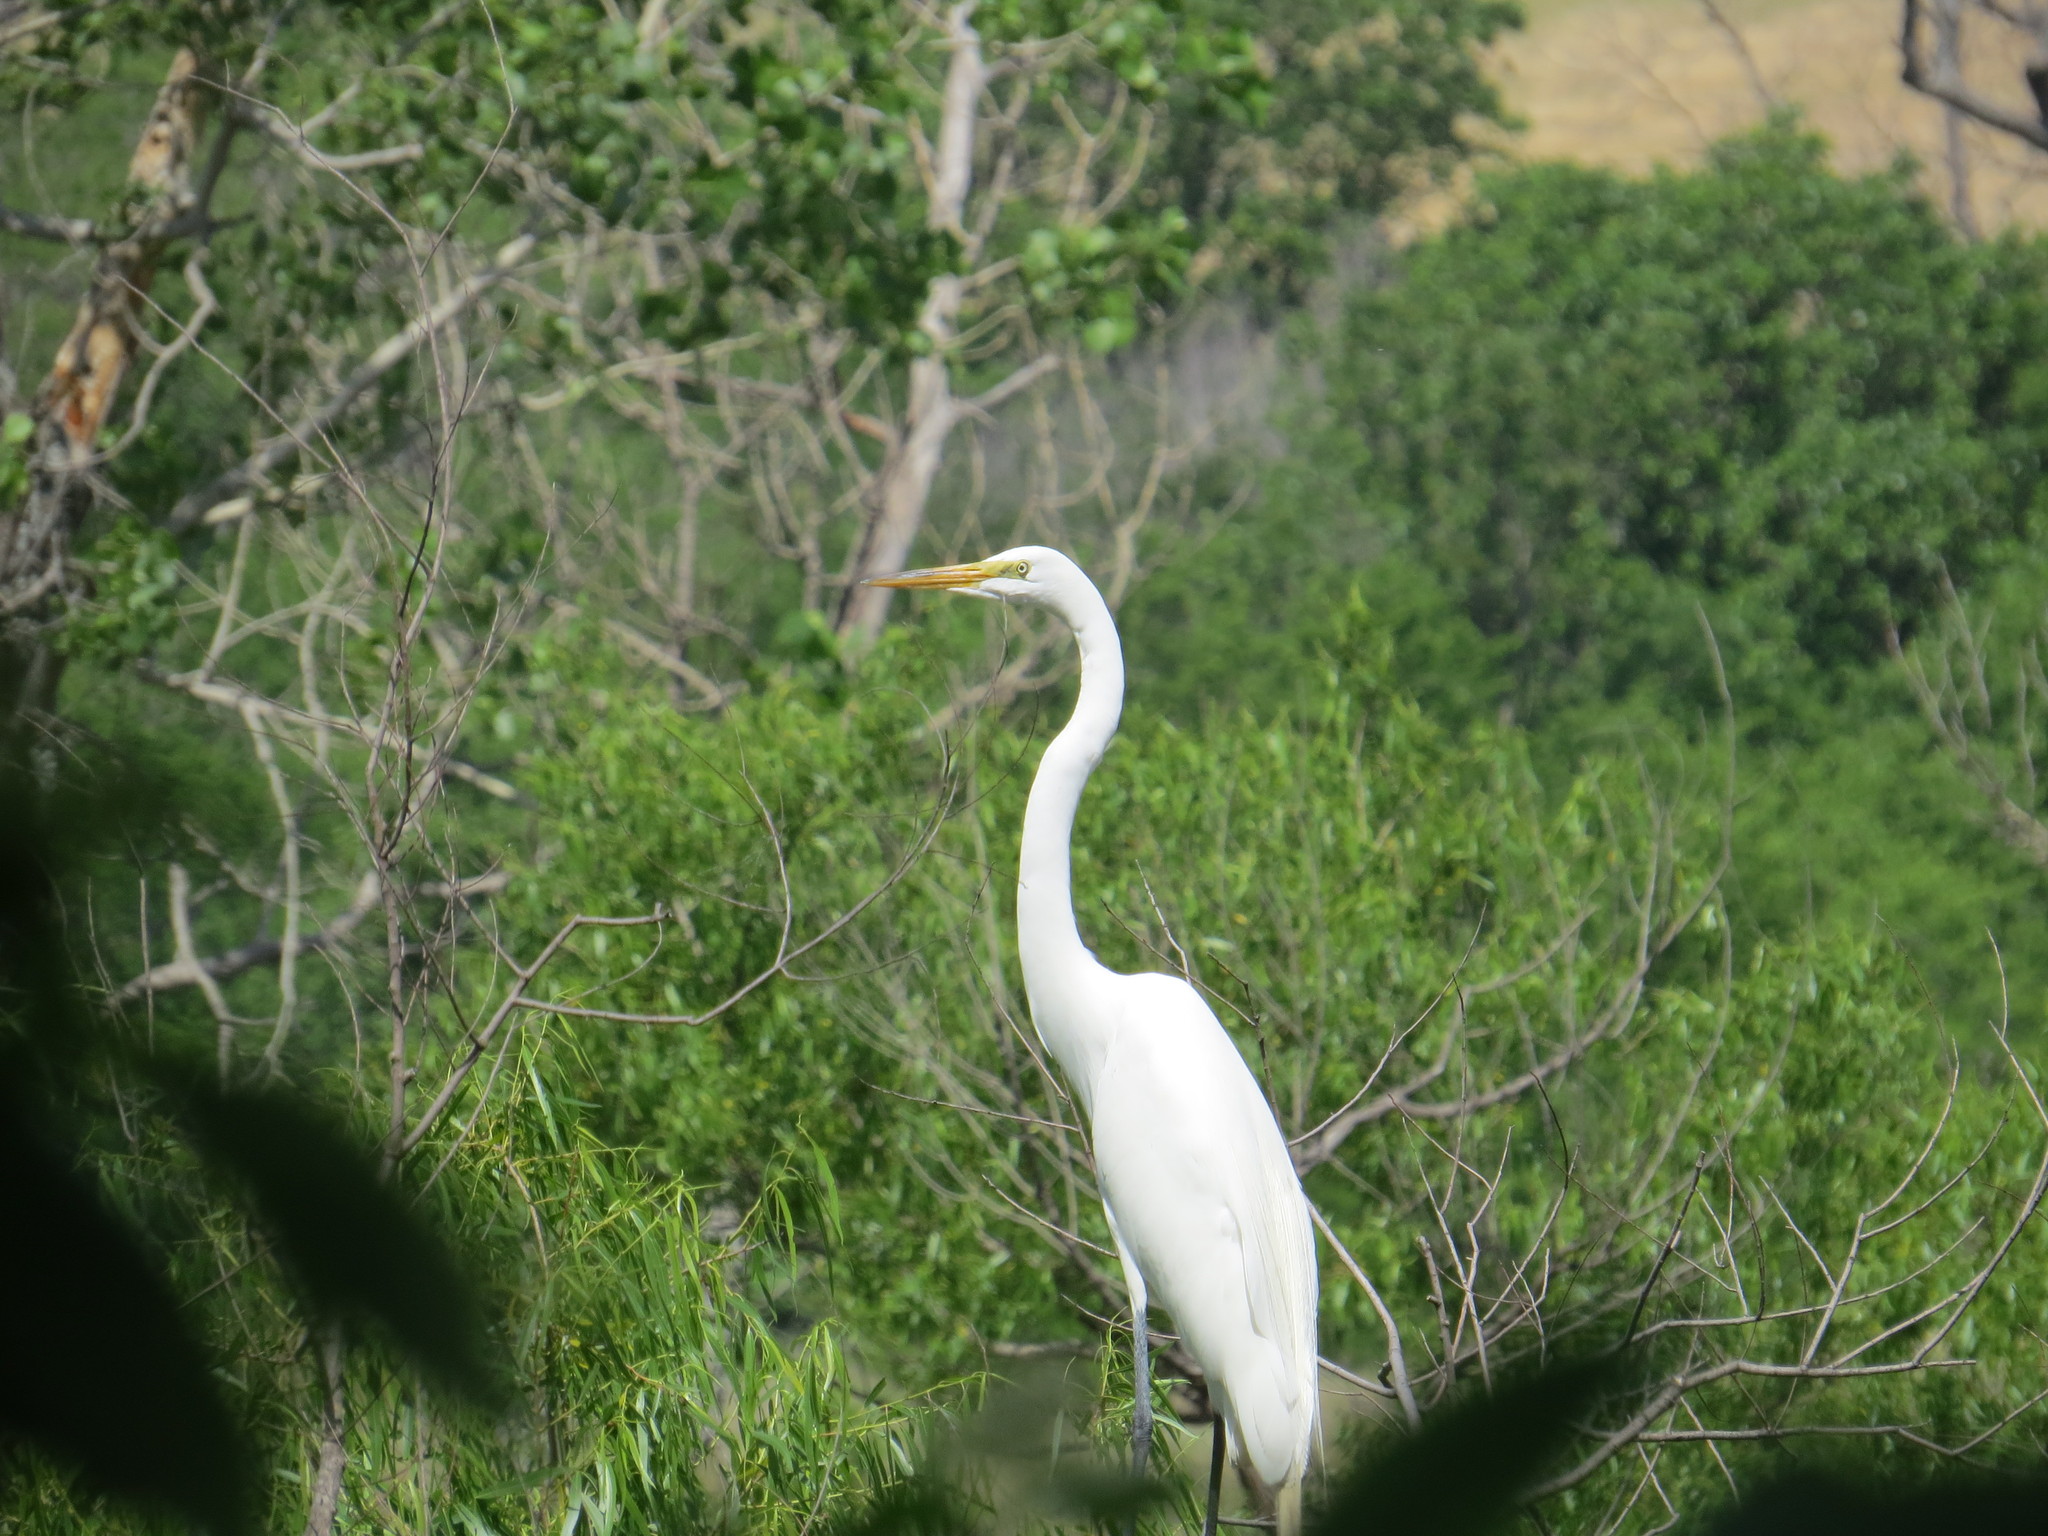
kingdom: Animalia
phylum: Chordata
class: Aves
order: Pelecaniformes
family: Ardeidae
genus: Ardea
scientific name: Ardea alba
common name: Great egret
